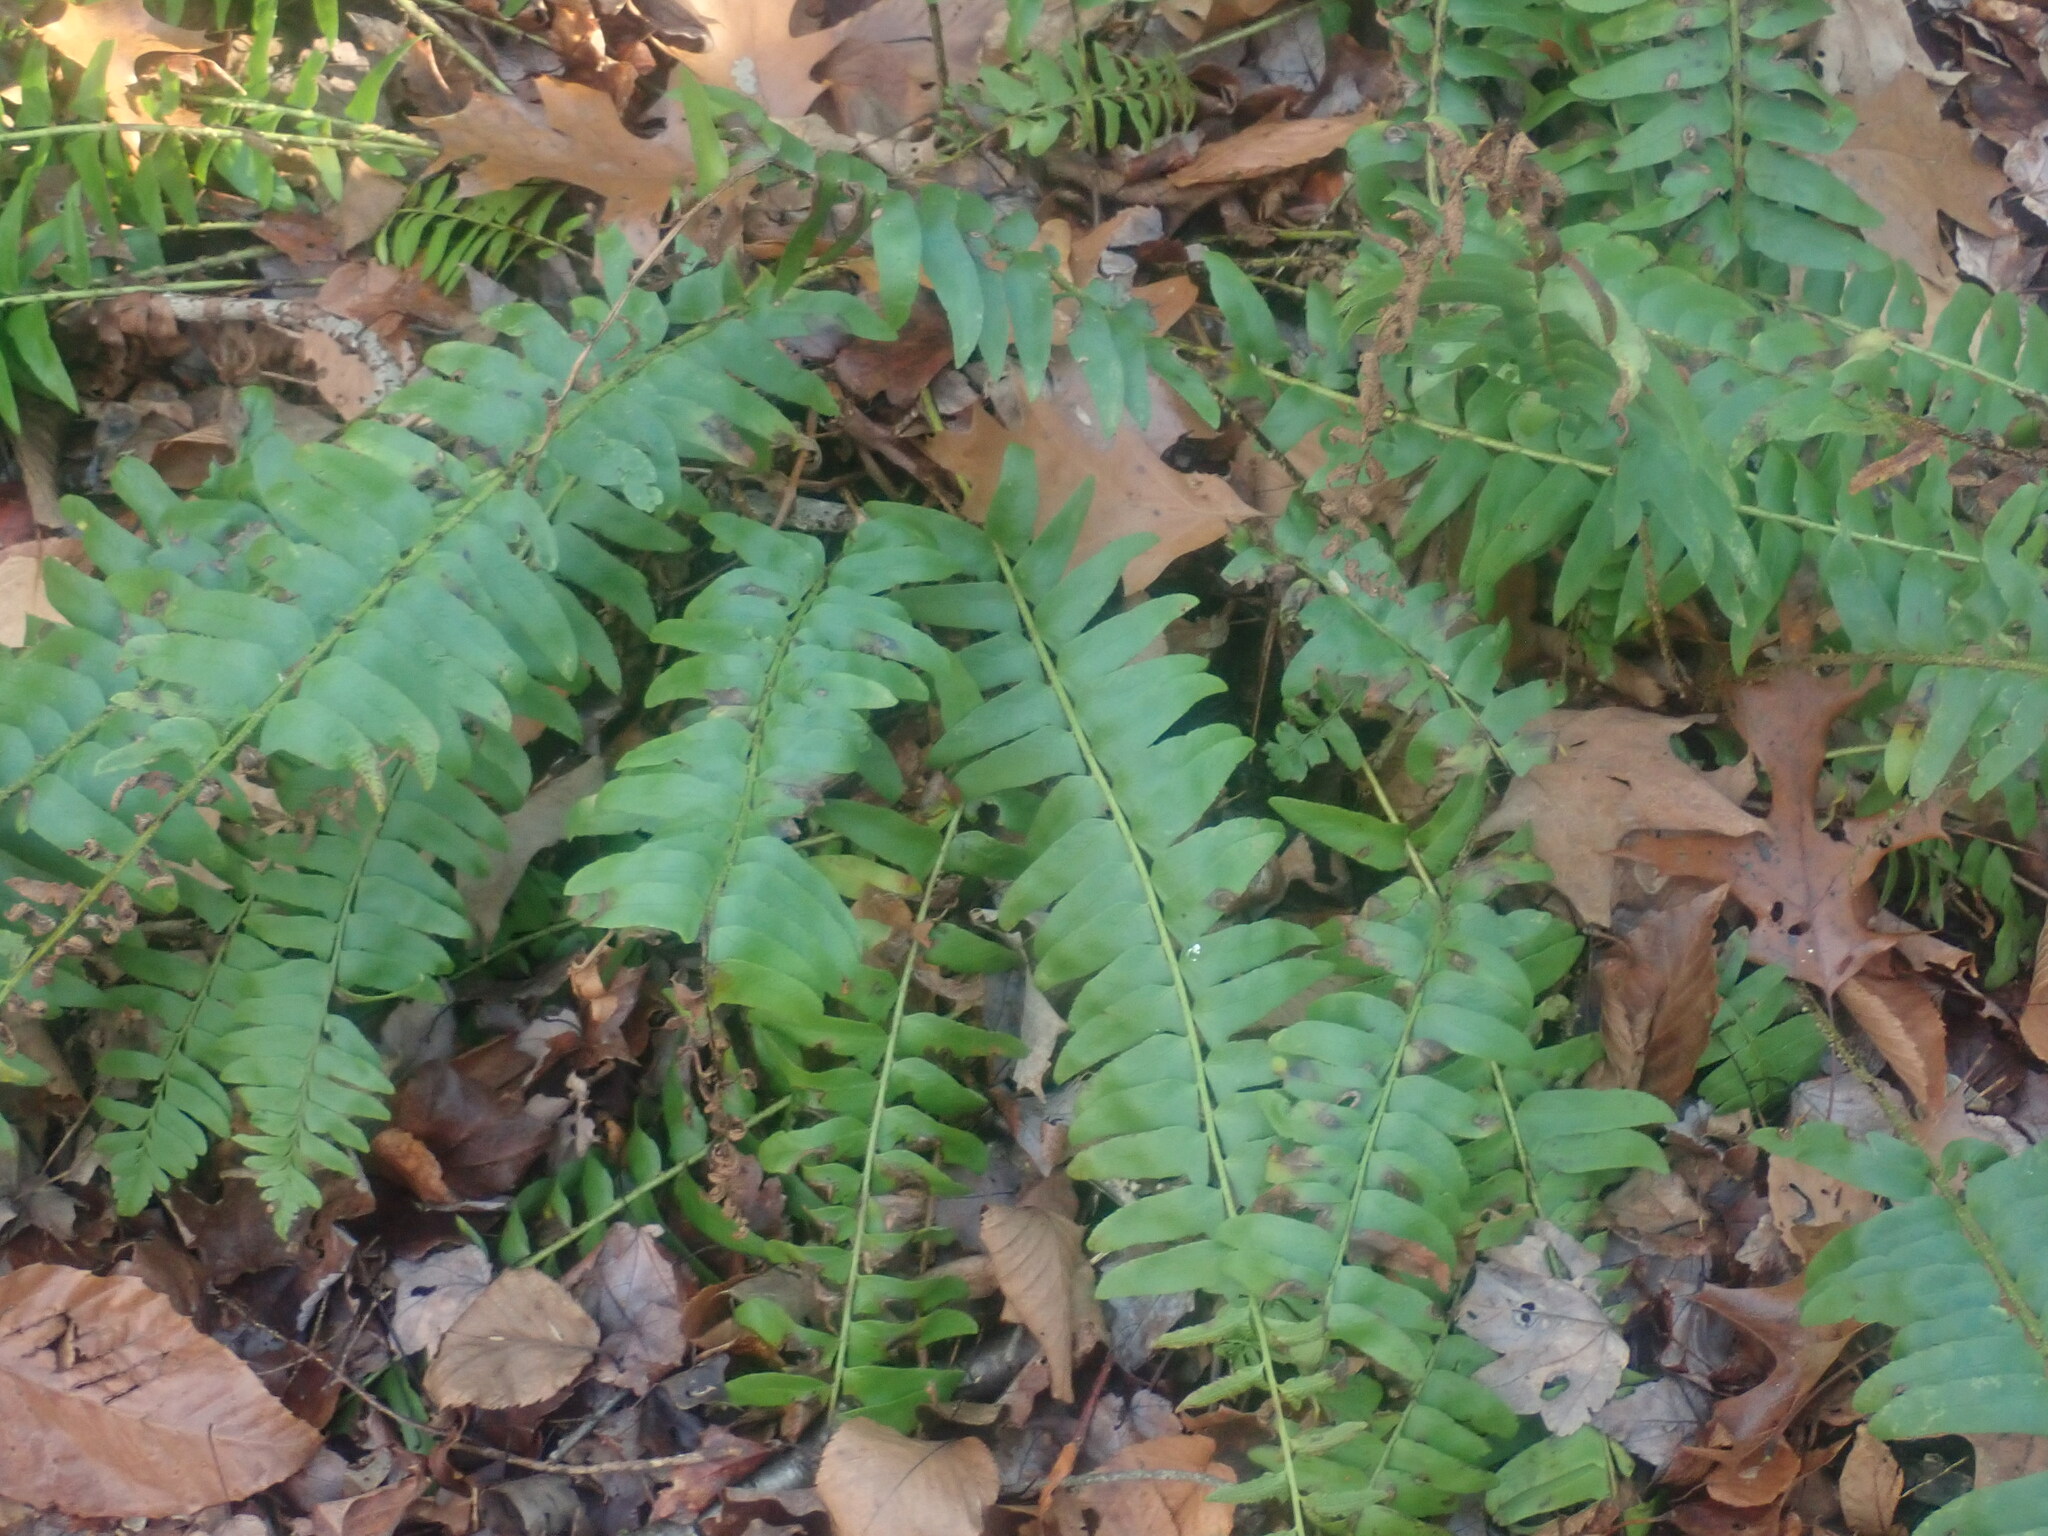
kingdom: Plantae
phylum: Tracheophyta
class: Polypodiopsida
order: Polypodiales
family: Dryopteridaceae
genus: Polystichum
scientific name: Polystichum acrostichoides
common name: Christmas fern
